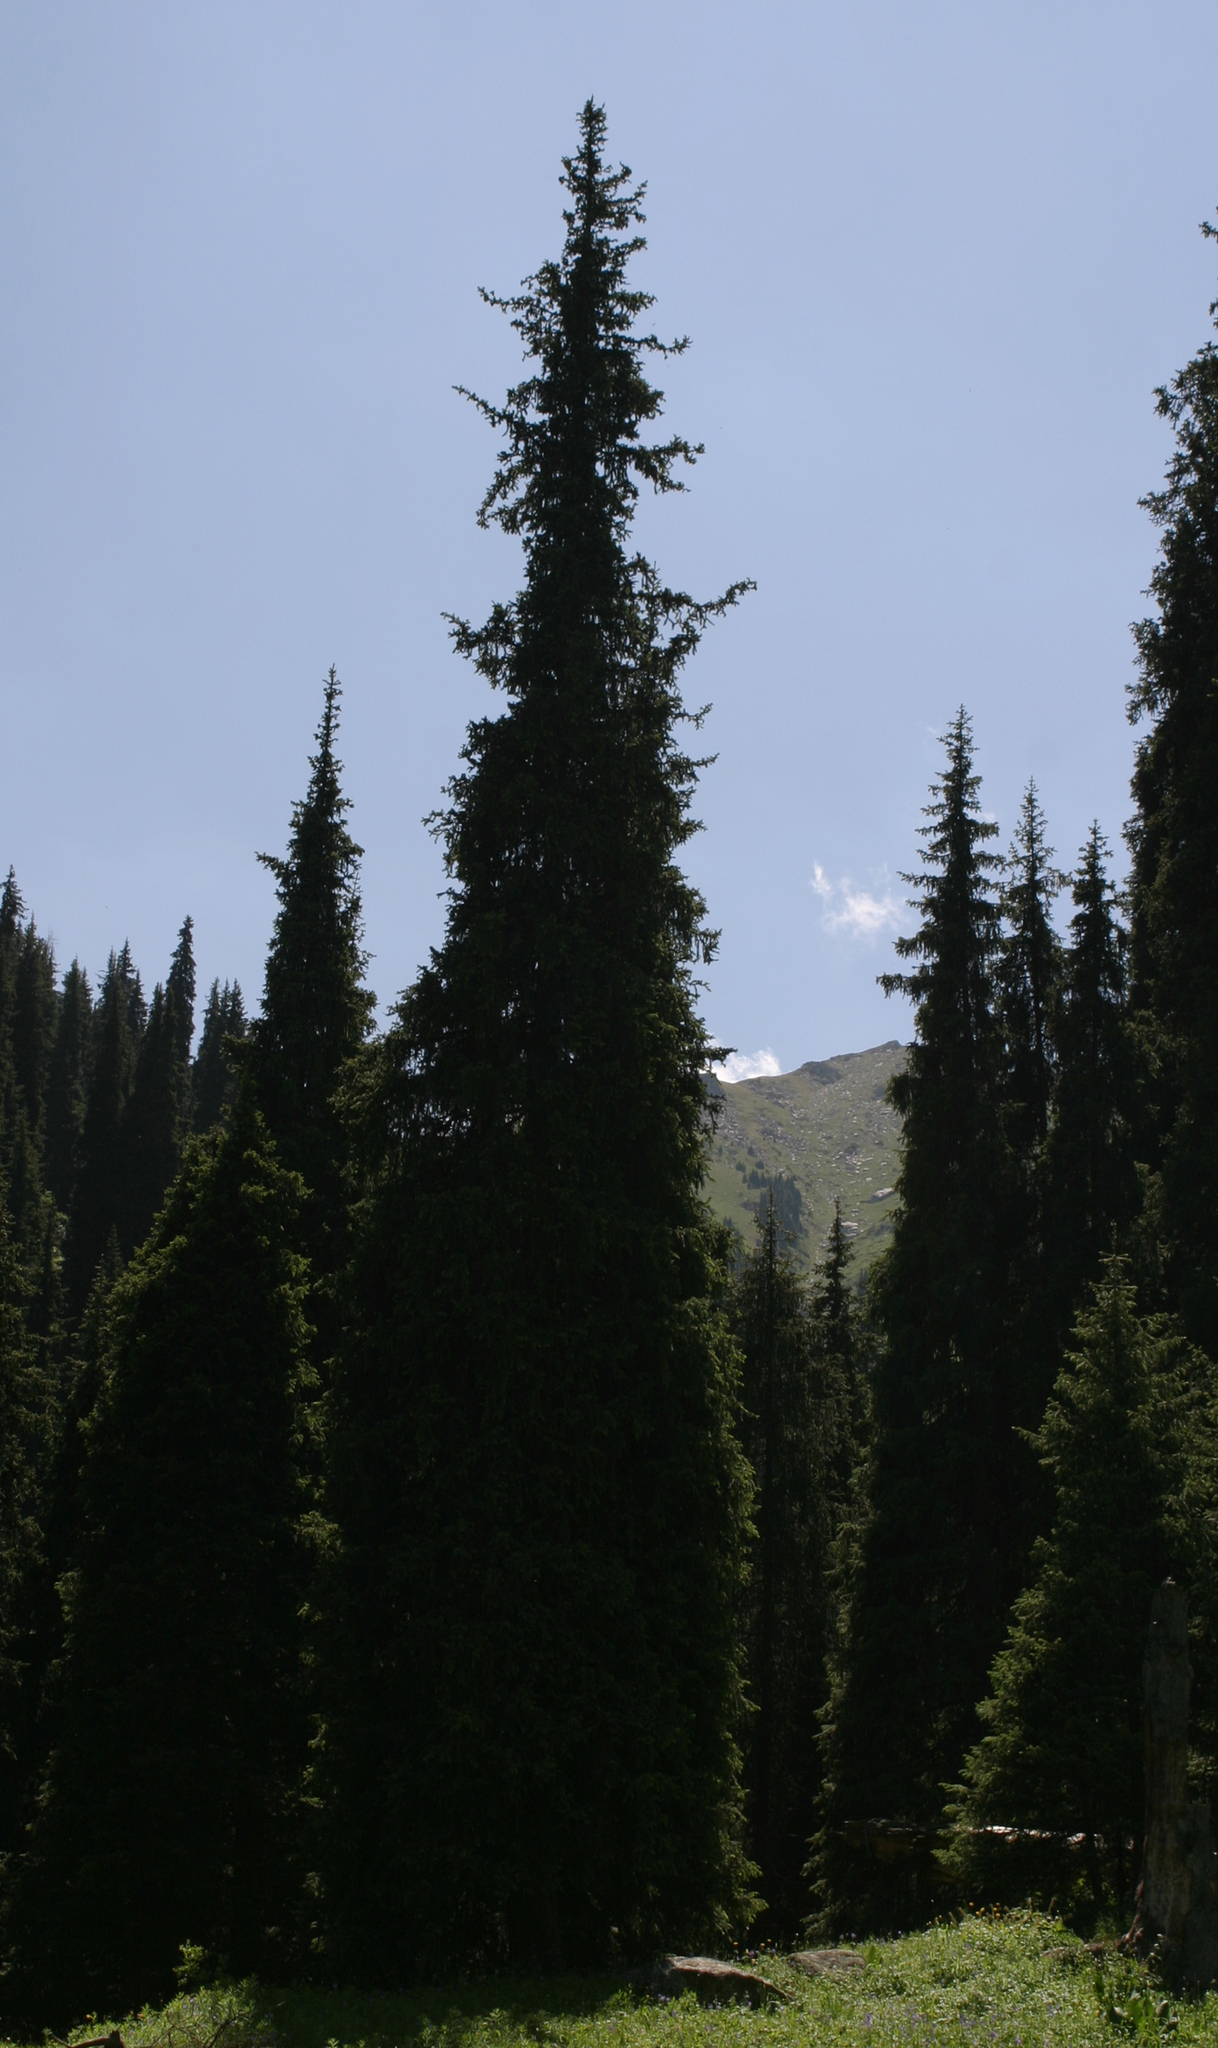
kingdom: Plantae
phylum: Tracheophyta
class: Pinopsida
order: Pinales
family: Pinaceae
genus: Picea
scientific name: Picea schrenkiana
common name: Asian spruce
